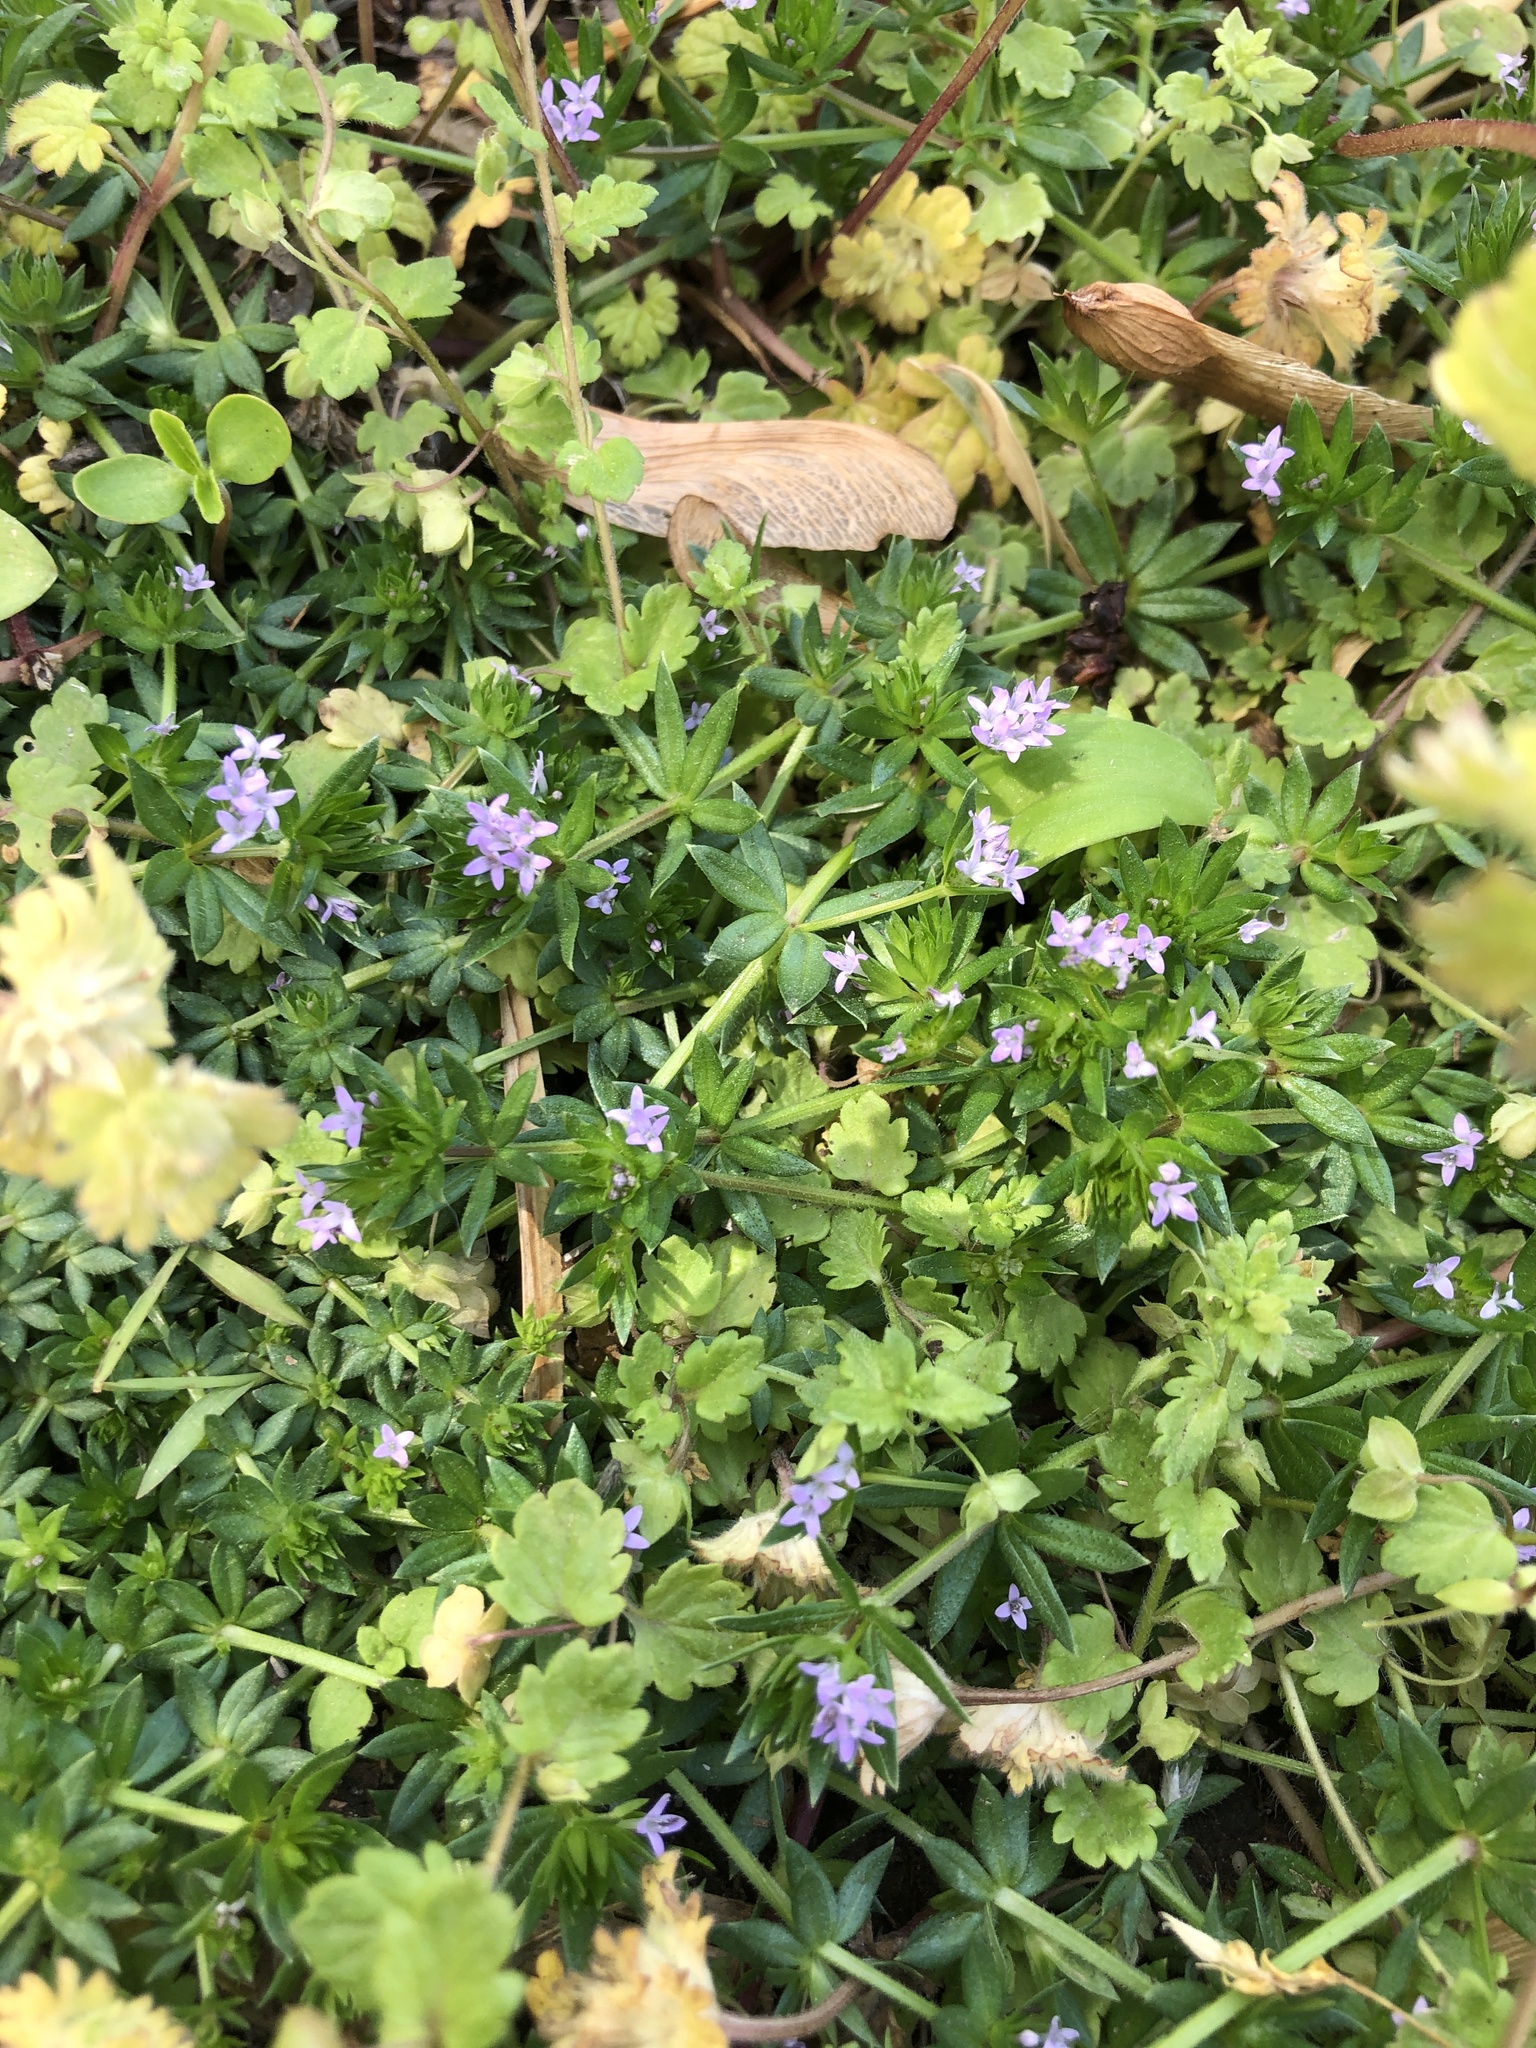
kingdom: Plantae
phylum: Tracheophyta
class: Magnoliopsida
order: Gentianales
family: Rubiaceae
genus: Sherardia
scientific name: Sherardia arvensis
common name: Field madder
